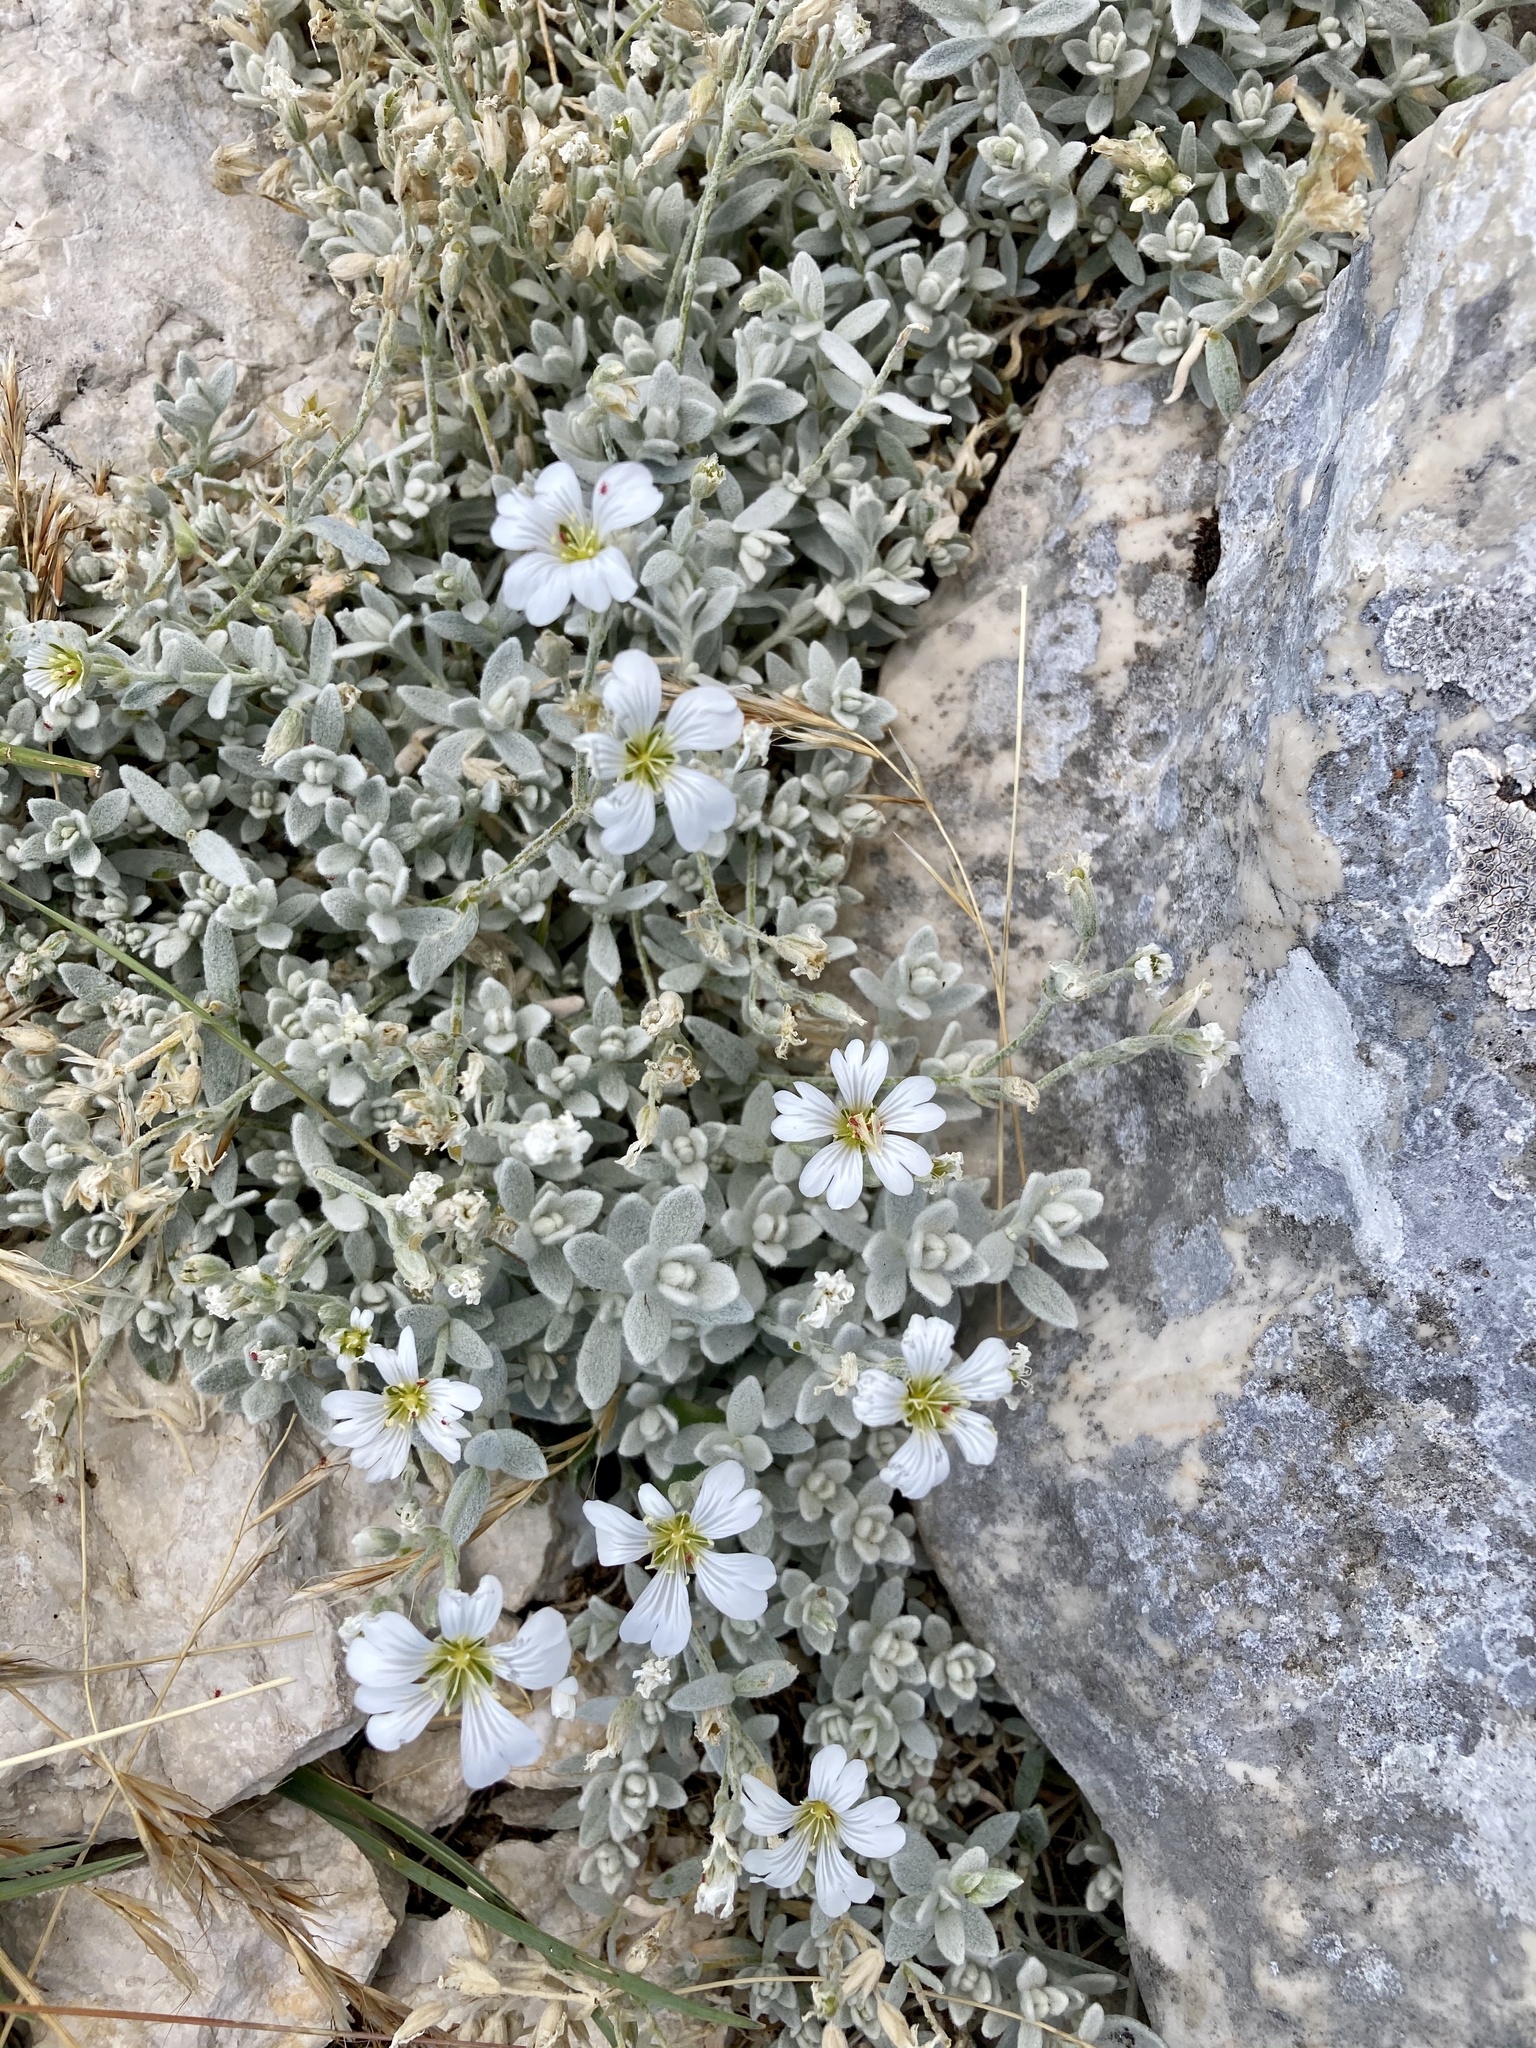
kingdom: Plantae
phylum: Tracheophyta
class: Magnoliopsida
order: Caryophyllales
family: Caryophyllaceae
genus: Cerastium
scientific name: Cerastium tomentosum
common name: Snow-in-summer
